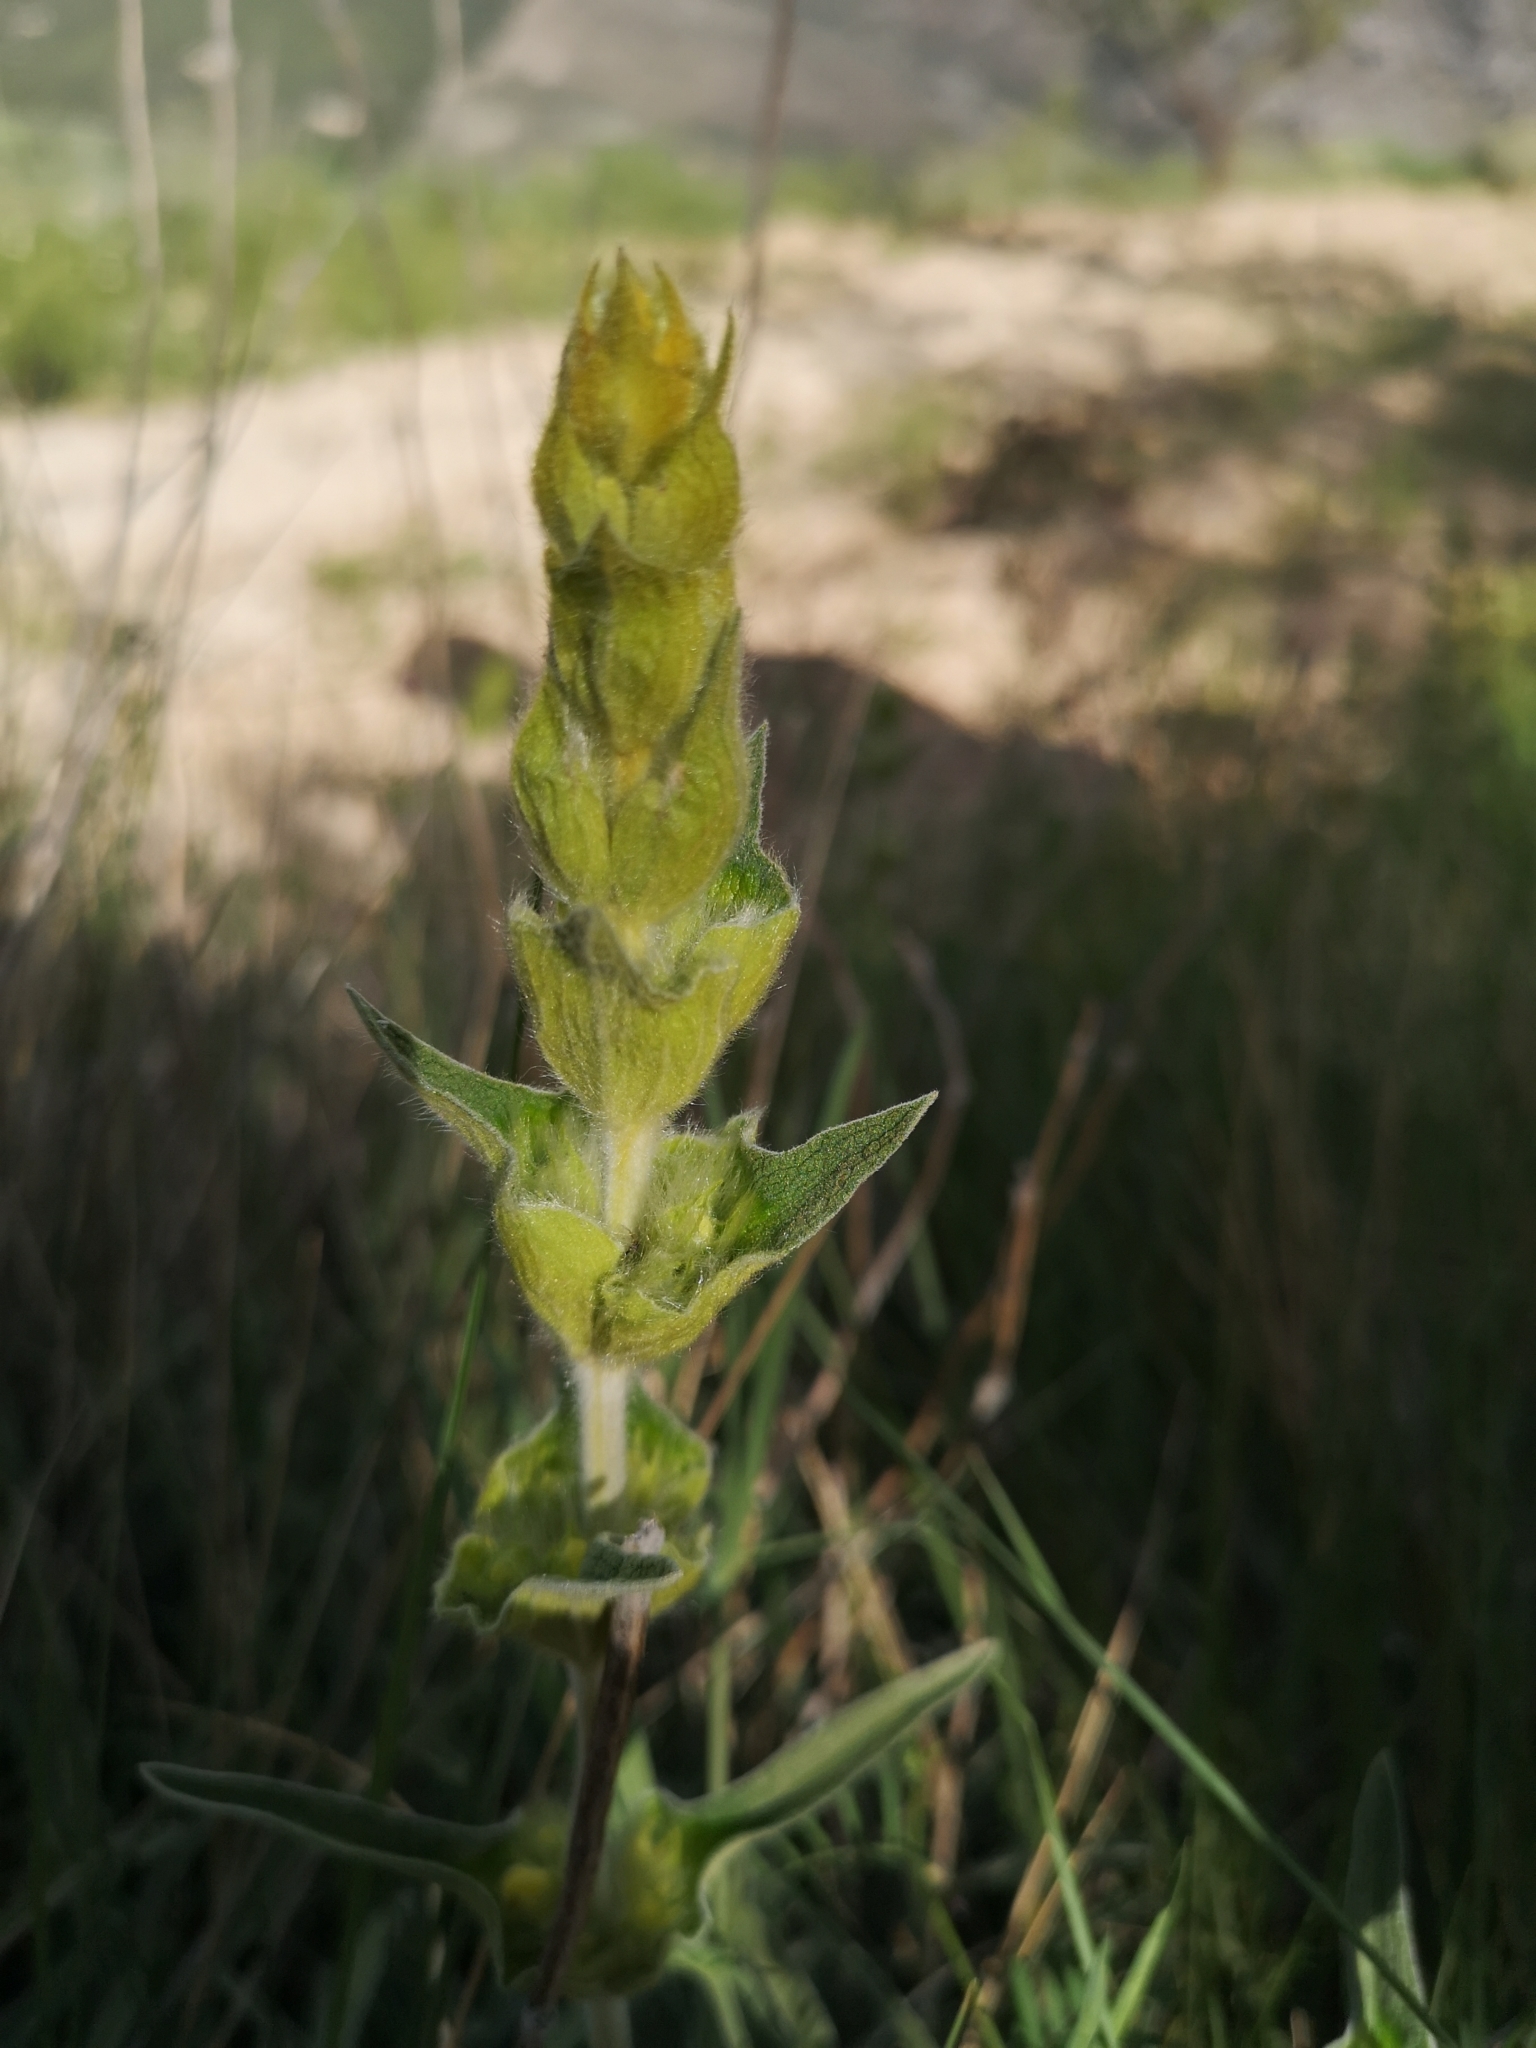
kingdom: Plantae
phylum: Tracheophyta
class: Magnoliopsida
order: Lamiales
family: Lamiaceae
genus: Phlomis
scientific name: Phlomis lychnitis
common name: Lampwickplant
